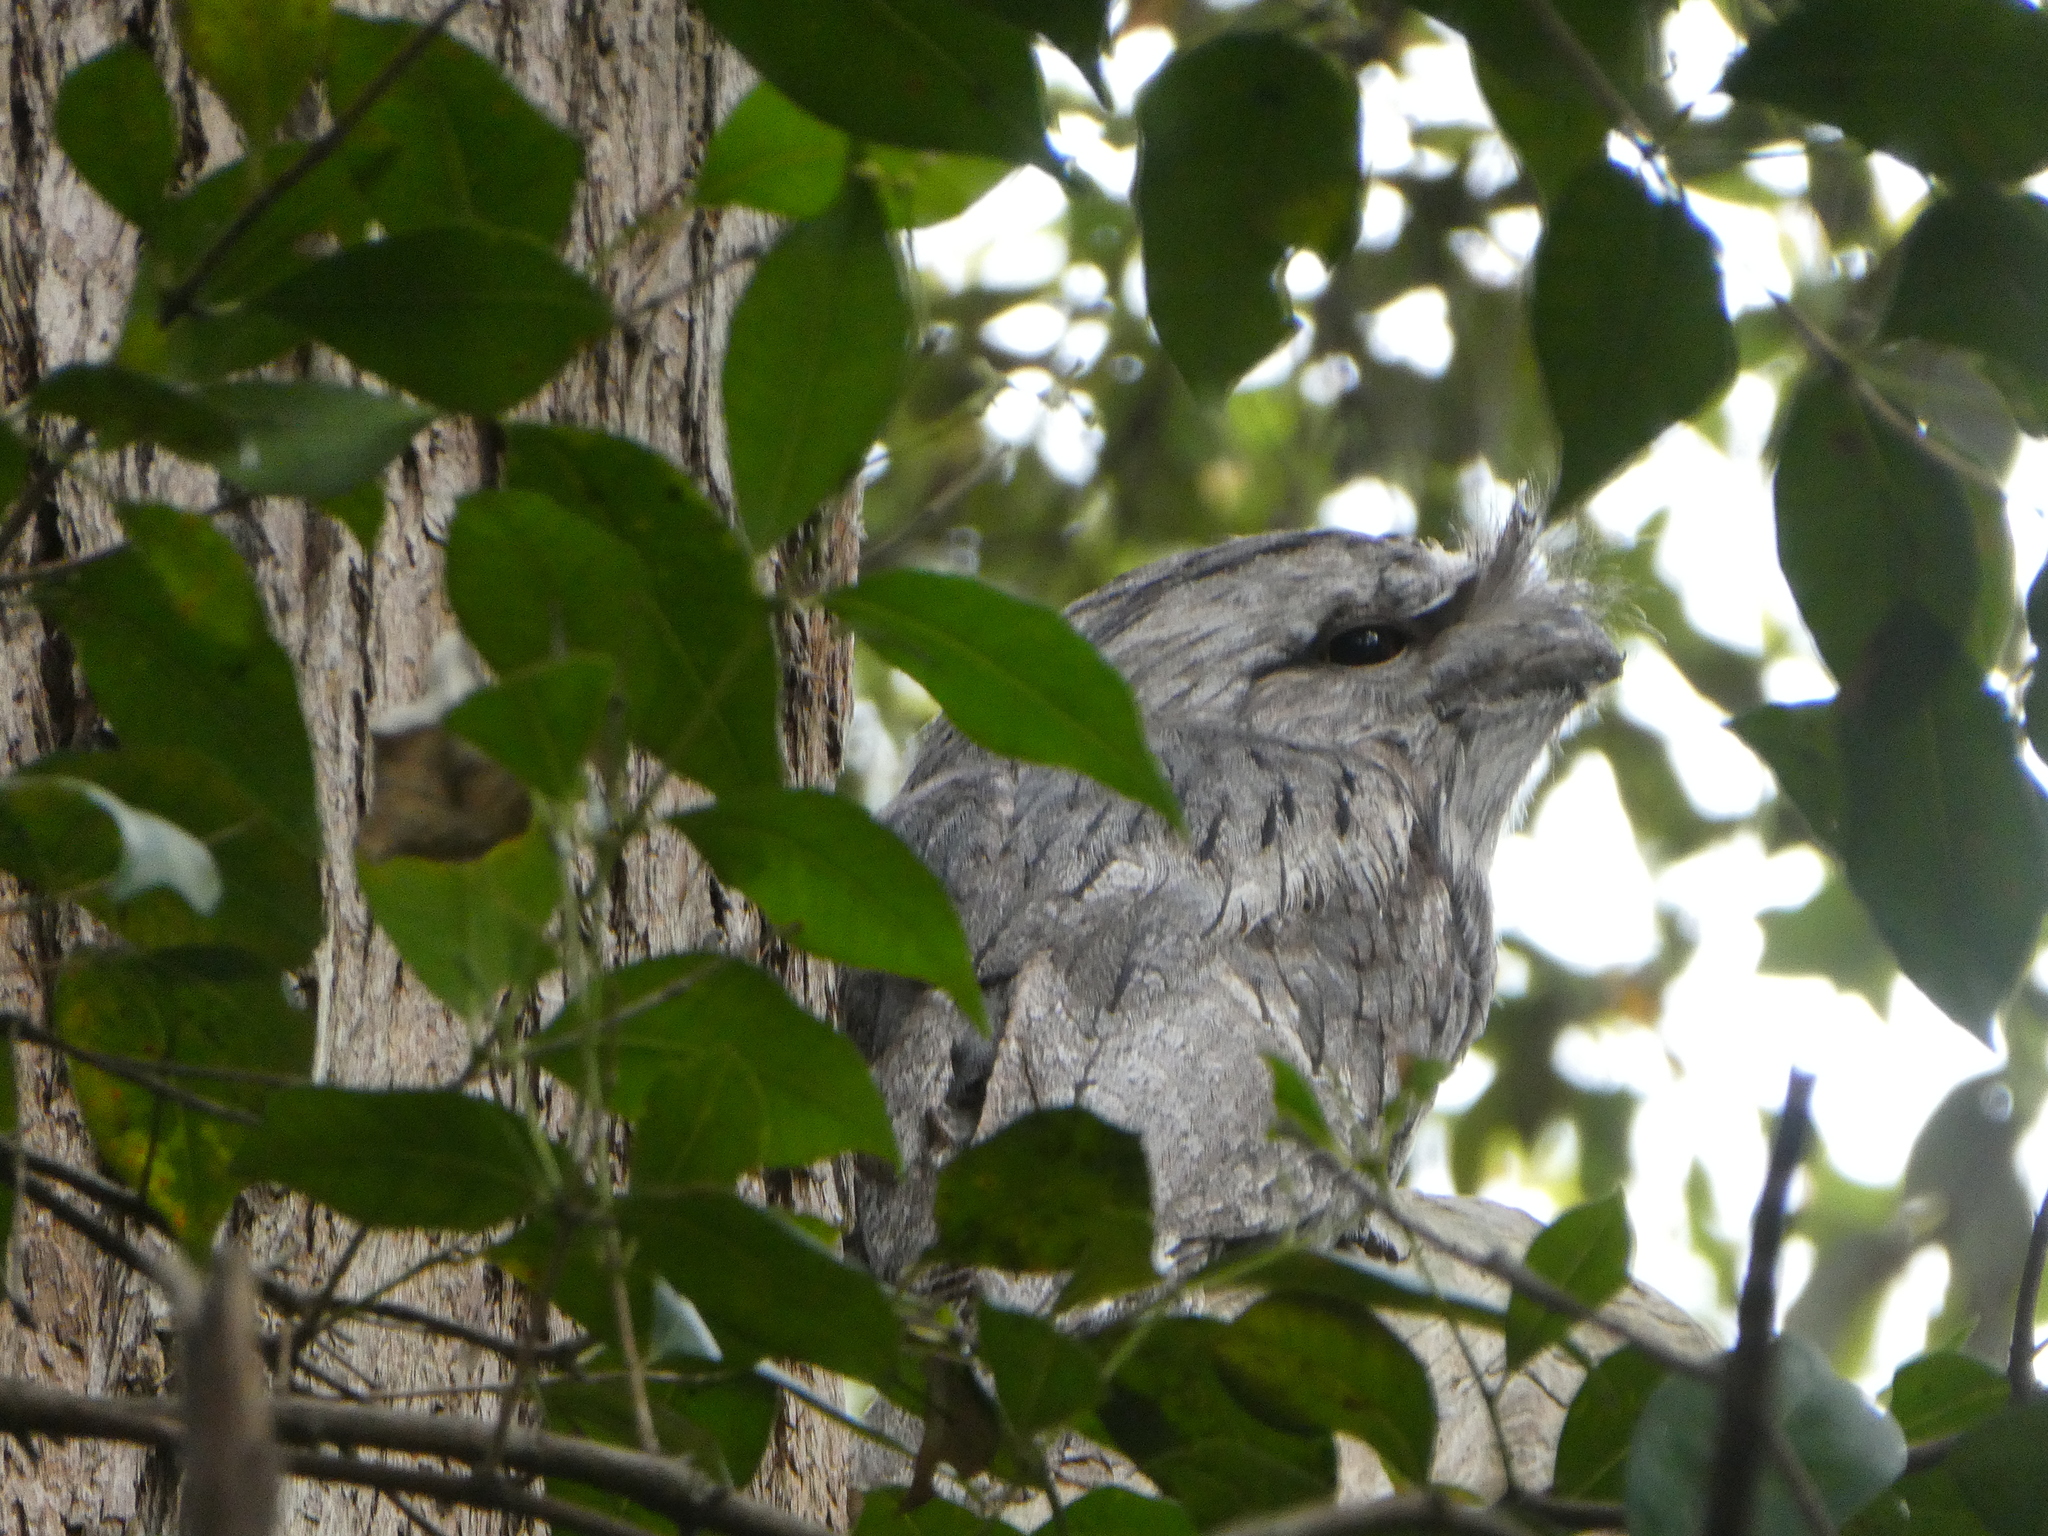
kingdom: Animalia
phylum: Chordata
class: Aves
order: Caprimulgiformes
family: Podargidae
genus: Podargus
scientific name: Podargus strigoides
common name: Tawny frogmouth
